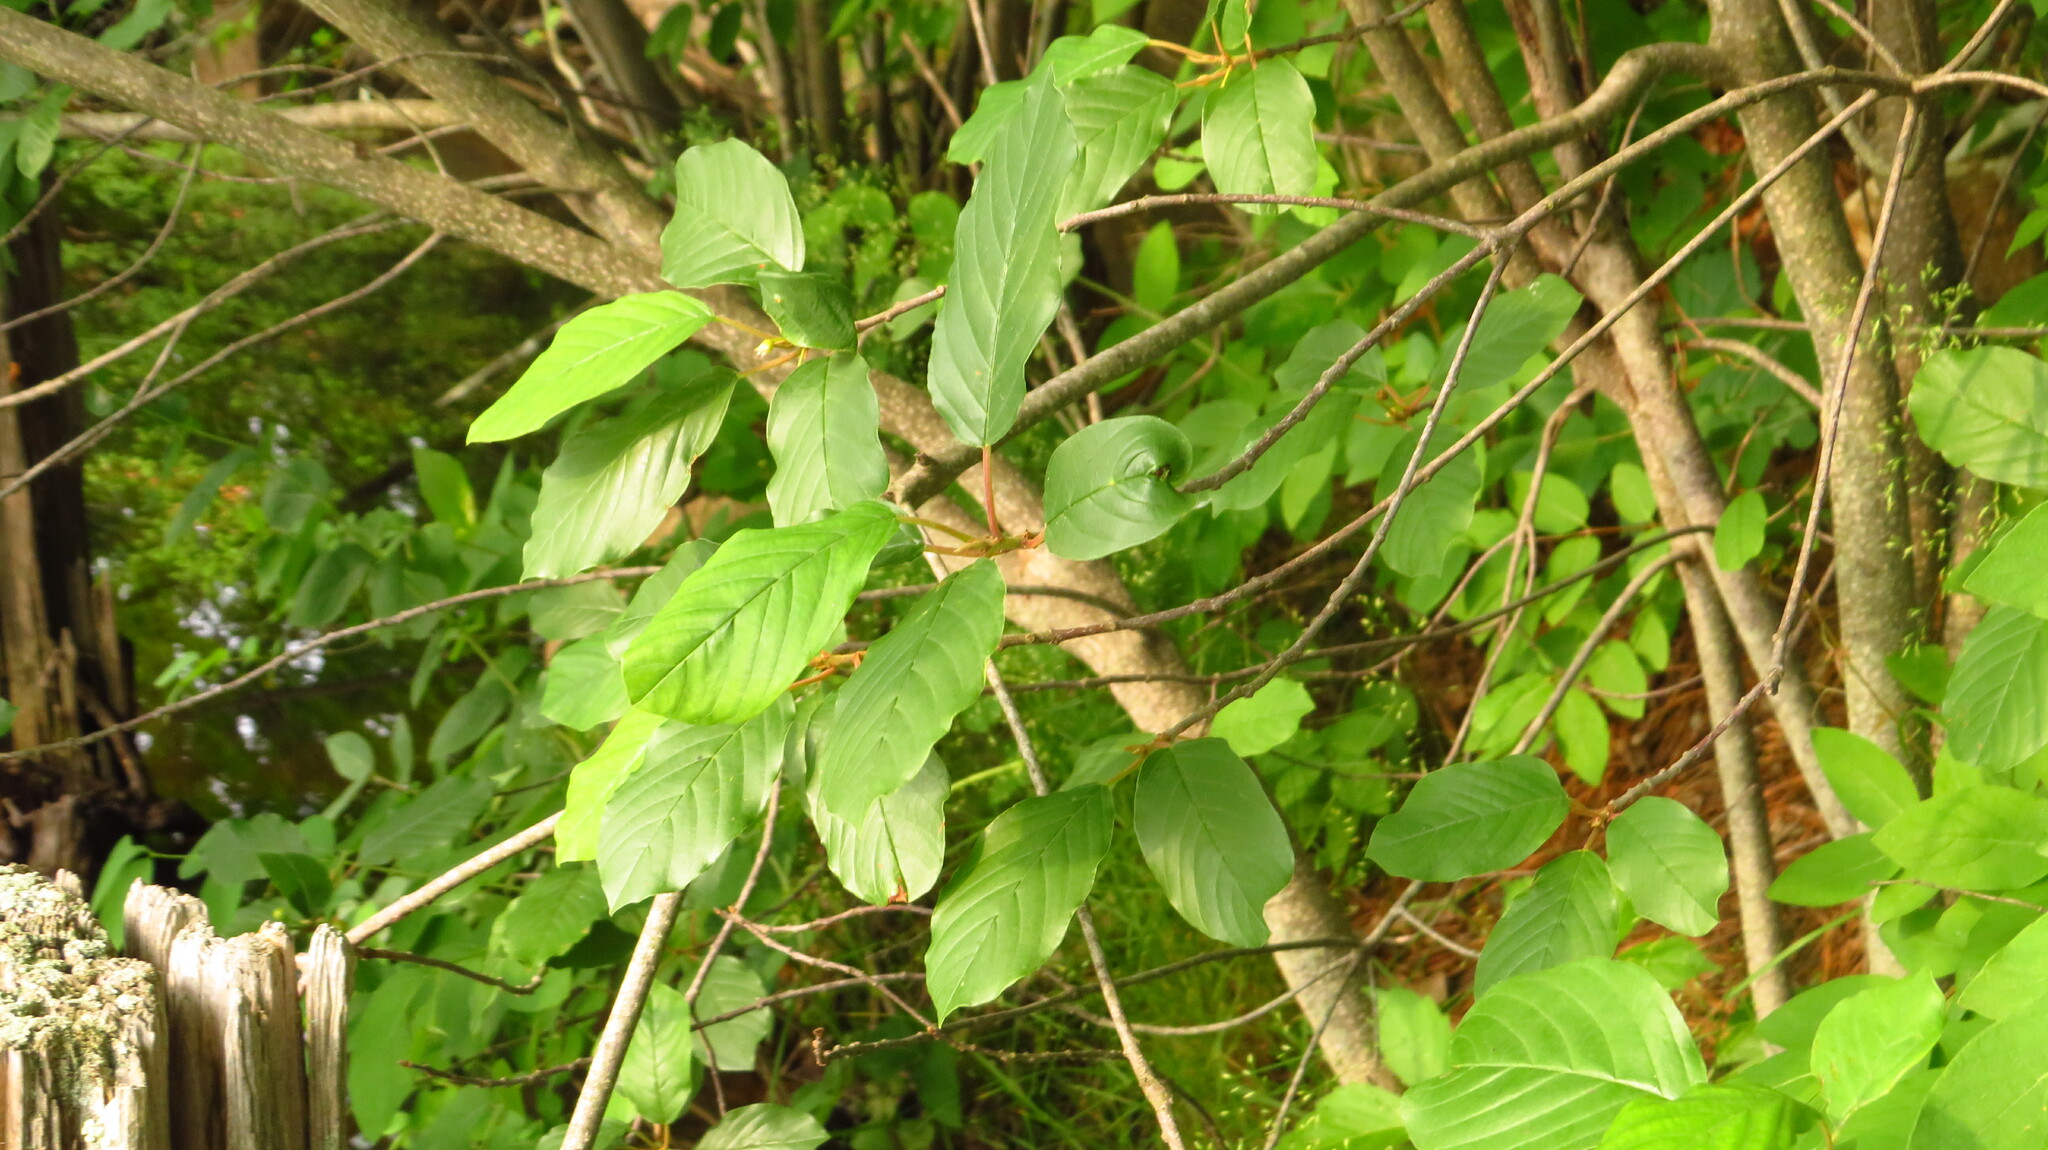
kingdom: Plantae
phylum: Tracheophyta
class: Magnoliopsida
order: Rosales
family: Rhamnaceae
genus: Frangula
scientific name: Frangula alnus
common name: Alder buckthorn
